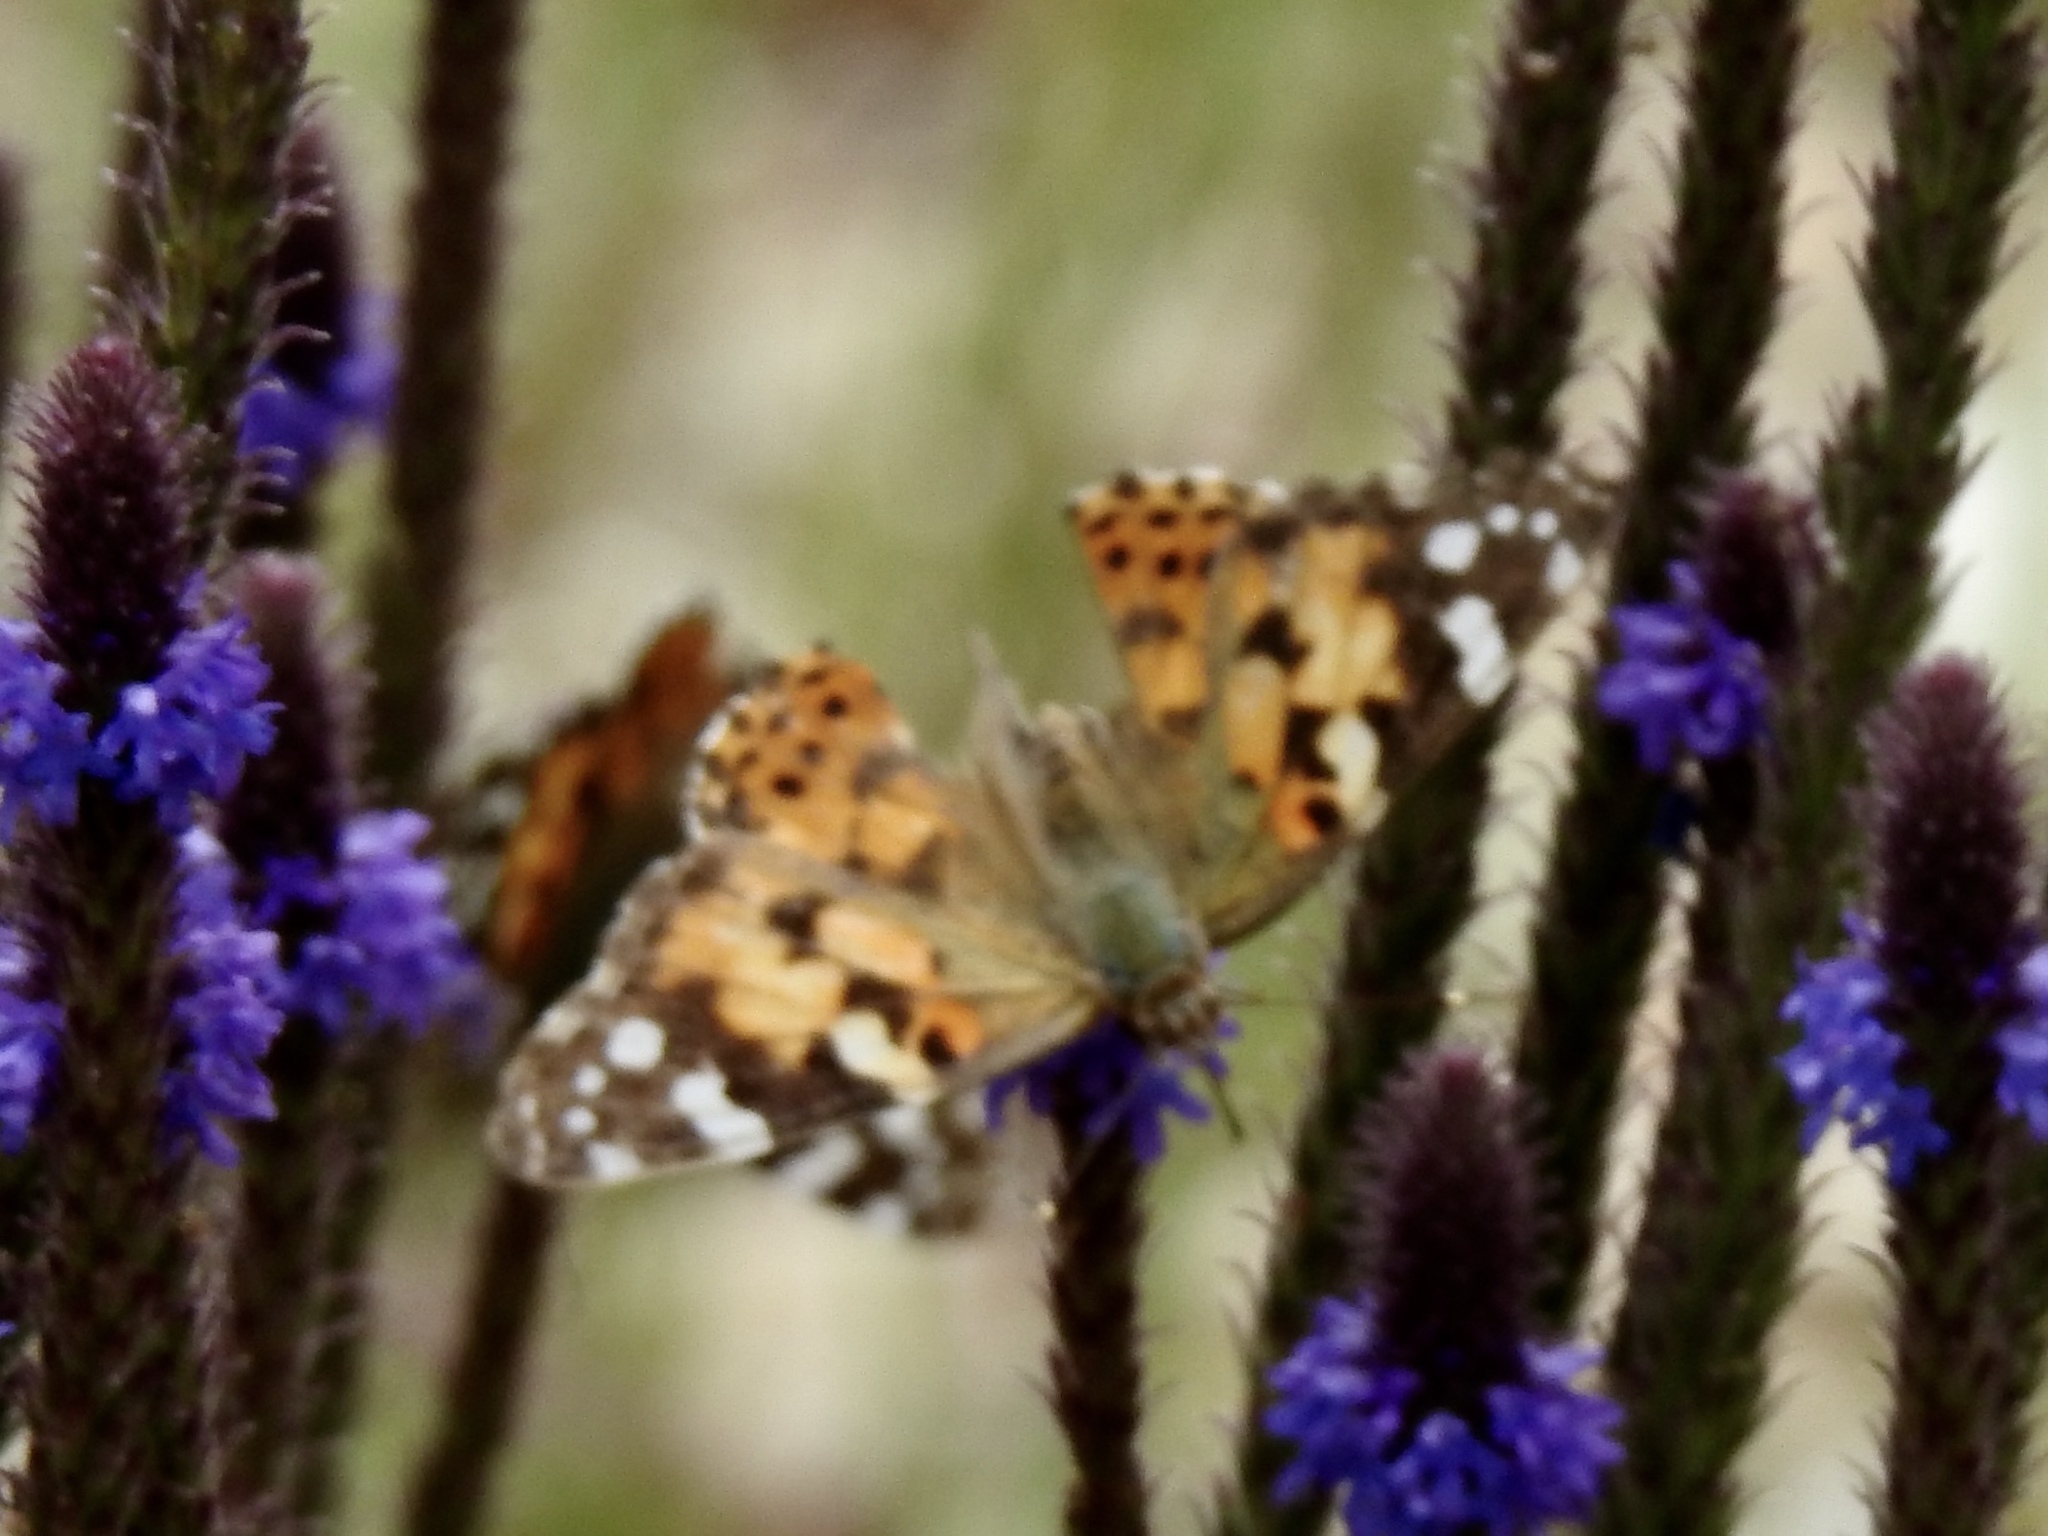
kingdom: Animalia
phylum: Arthropoda
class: Insecta
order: Lepidoptera
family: Nymphalidae
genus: Vanessa
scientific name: Vanessa cardui
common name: Painted lady
